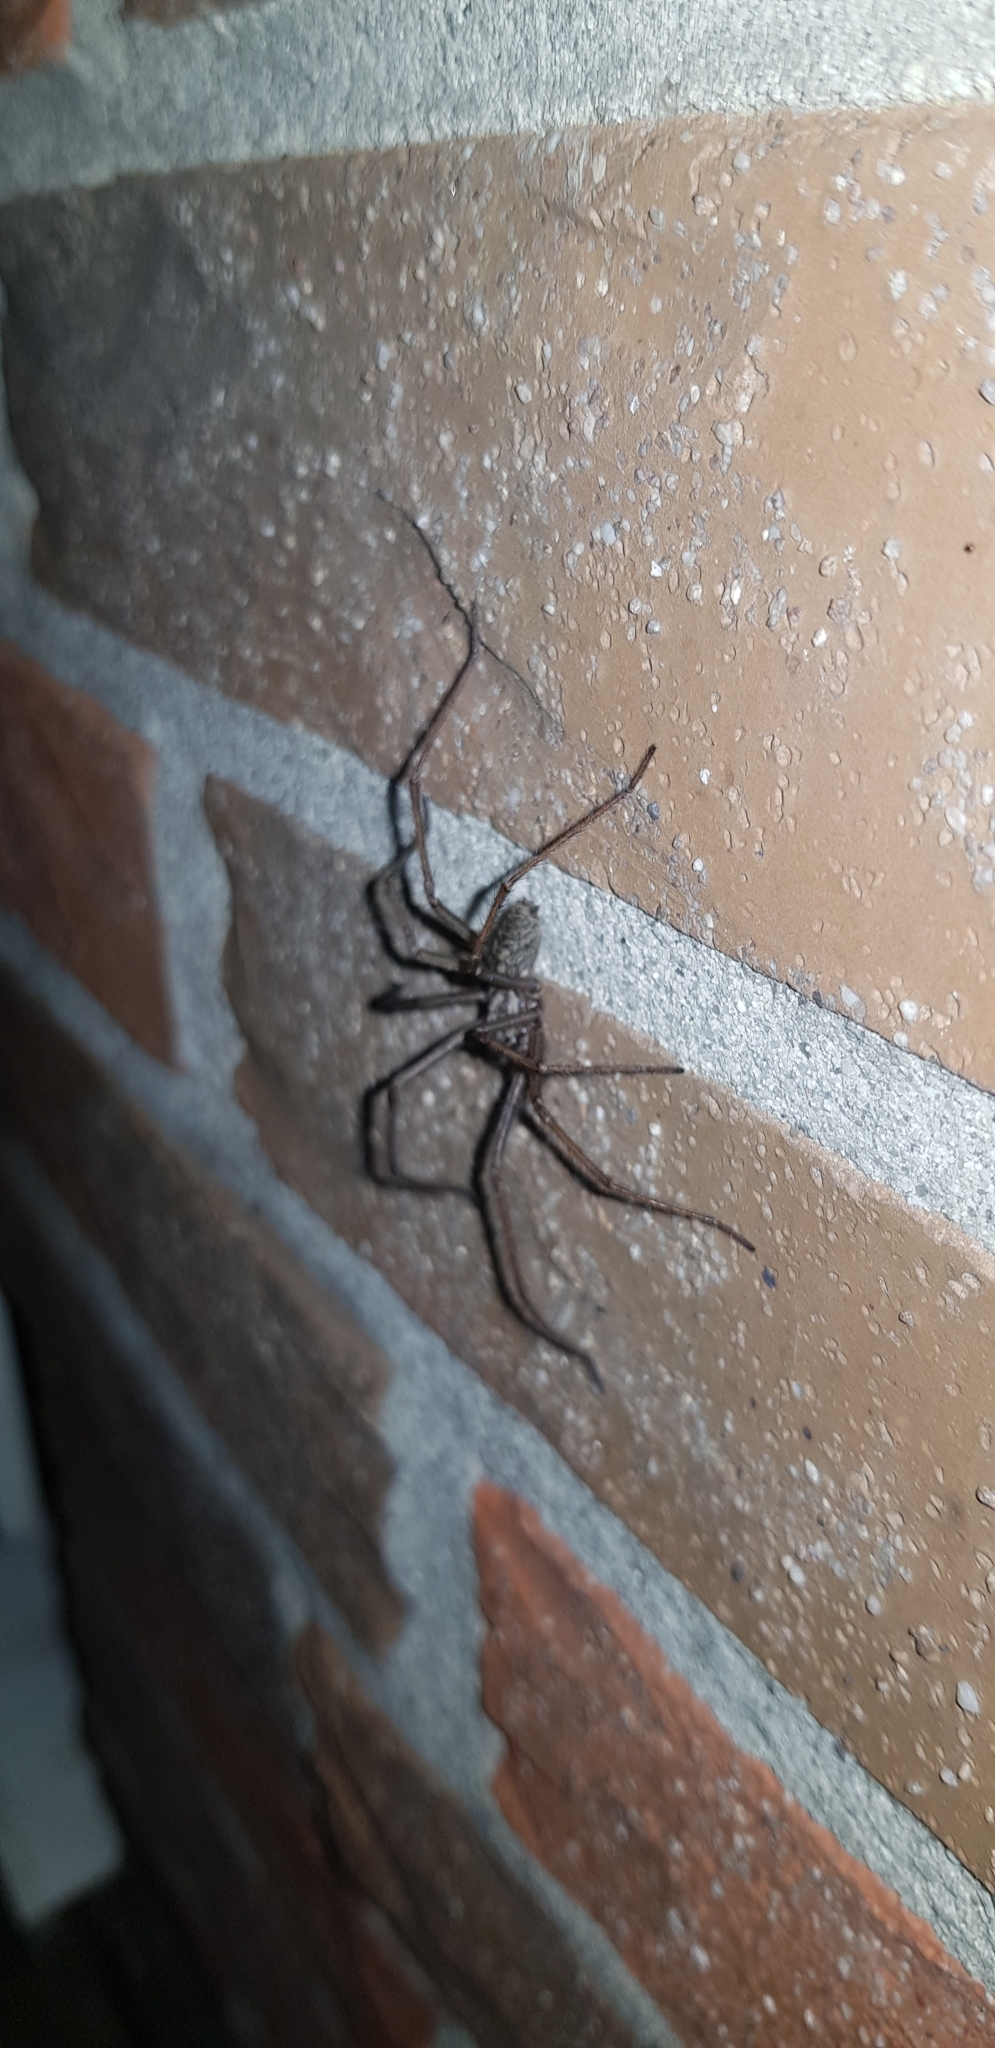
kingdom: Animalia
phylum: Arthropoda
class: Arachnida
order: Araneae
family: Agelenidae
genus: Eratigena
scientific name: Eratigena atrica
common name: Giant house spider
